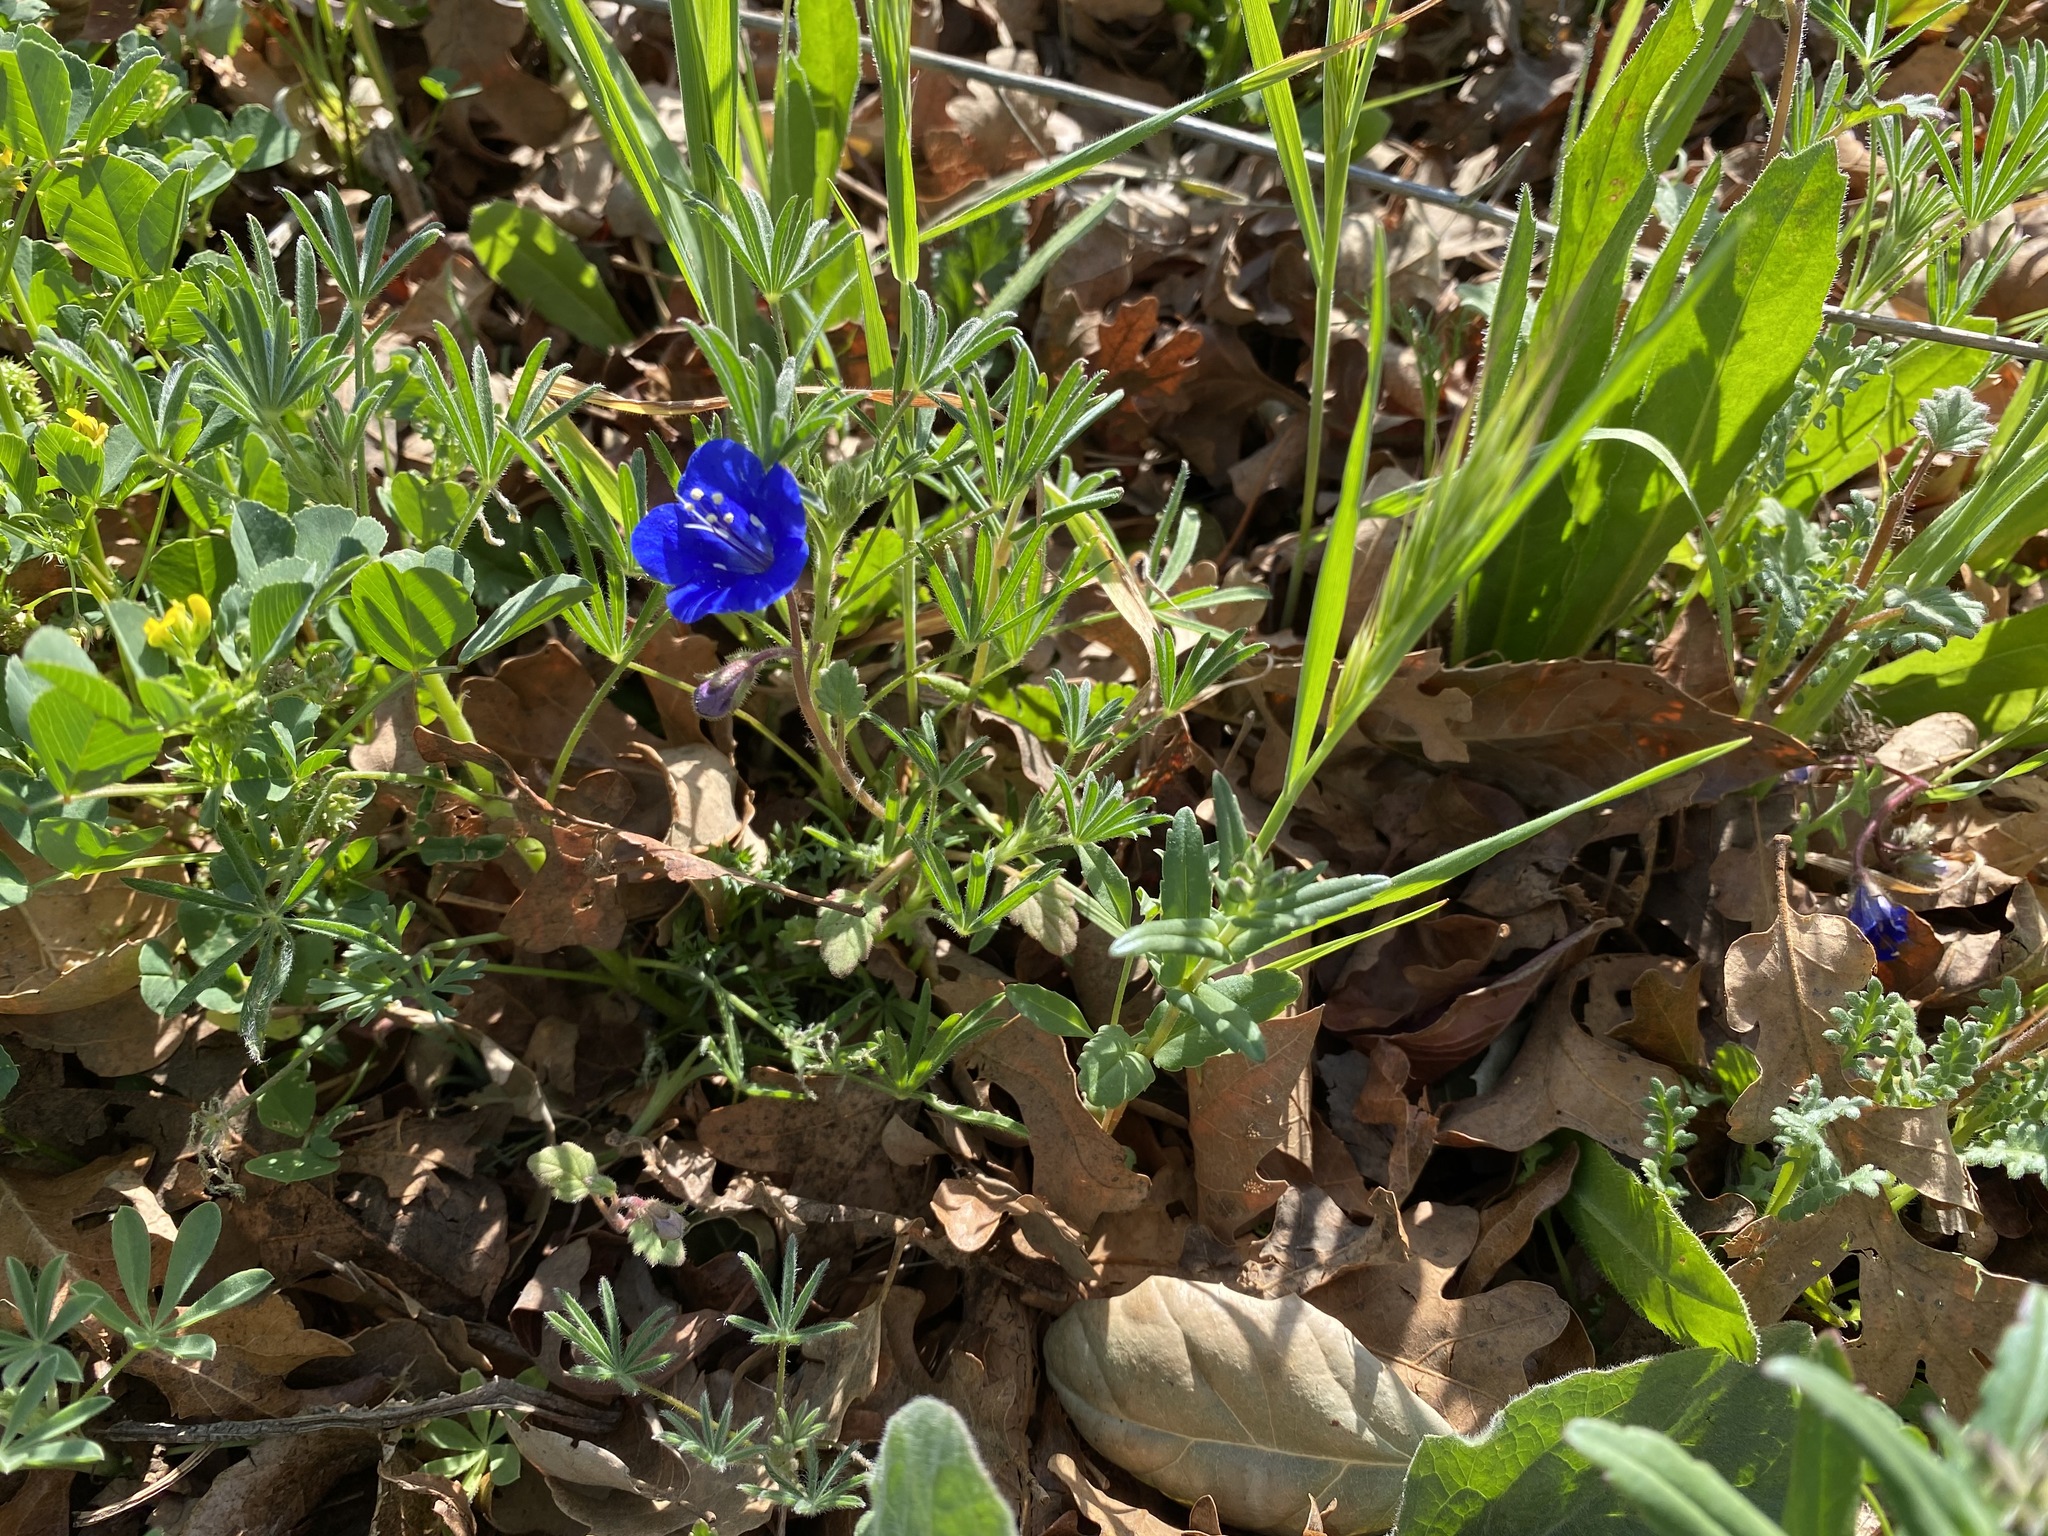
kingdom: Plantae
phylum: Tracheophyta
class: Magnoliopsida
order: Boraginales
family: Hydrophyllaceae
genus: Phacelia
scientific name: Phacelia campanularia
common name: California bluebell
